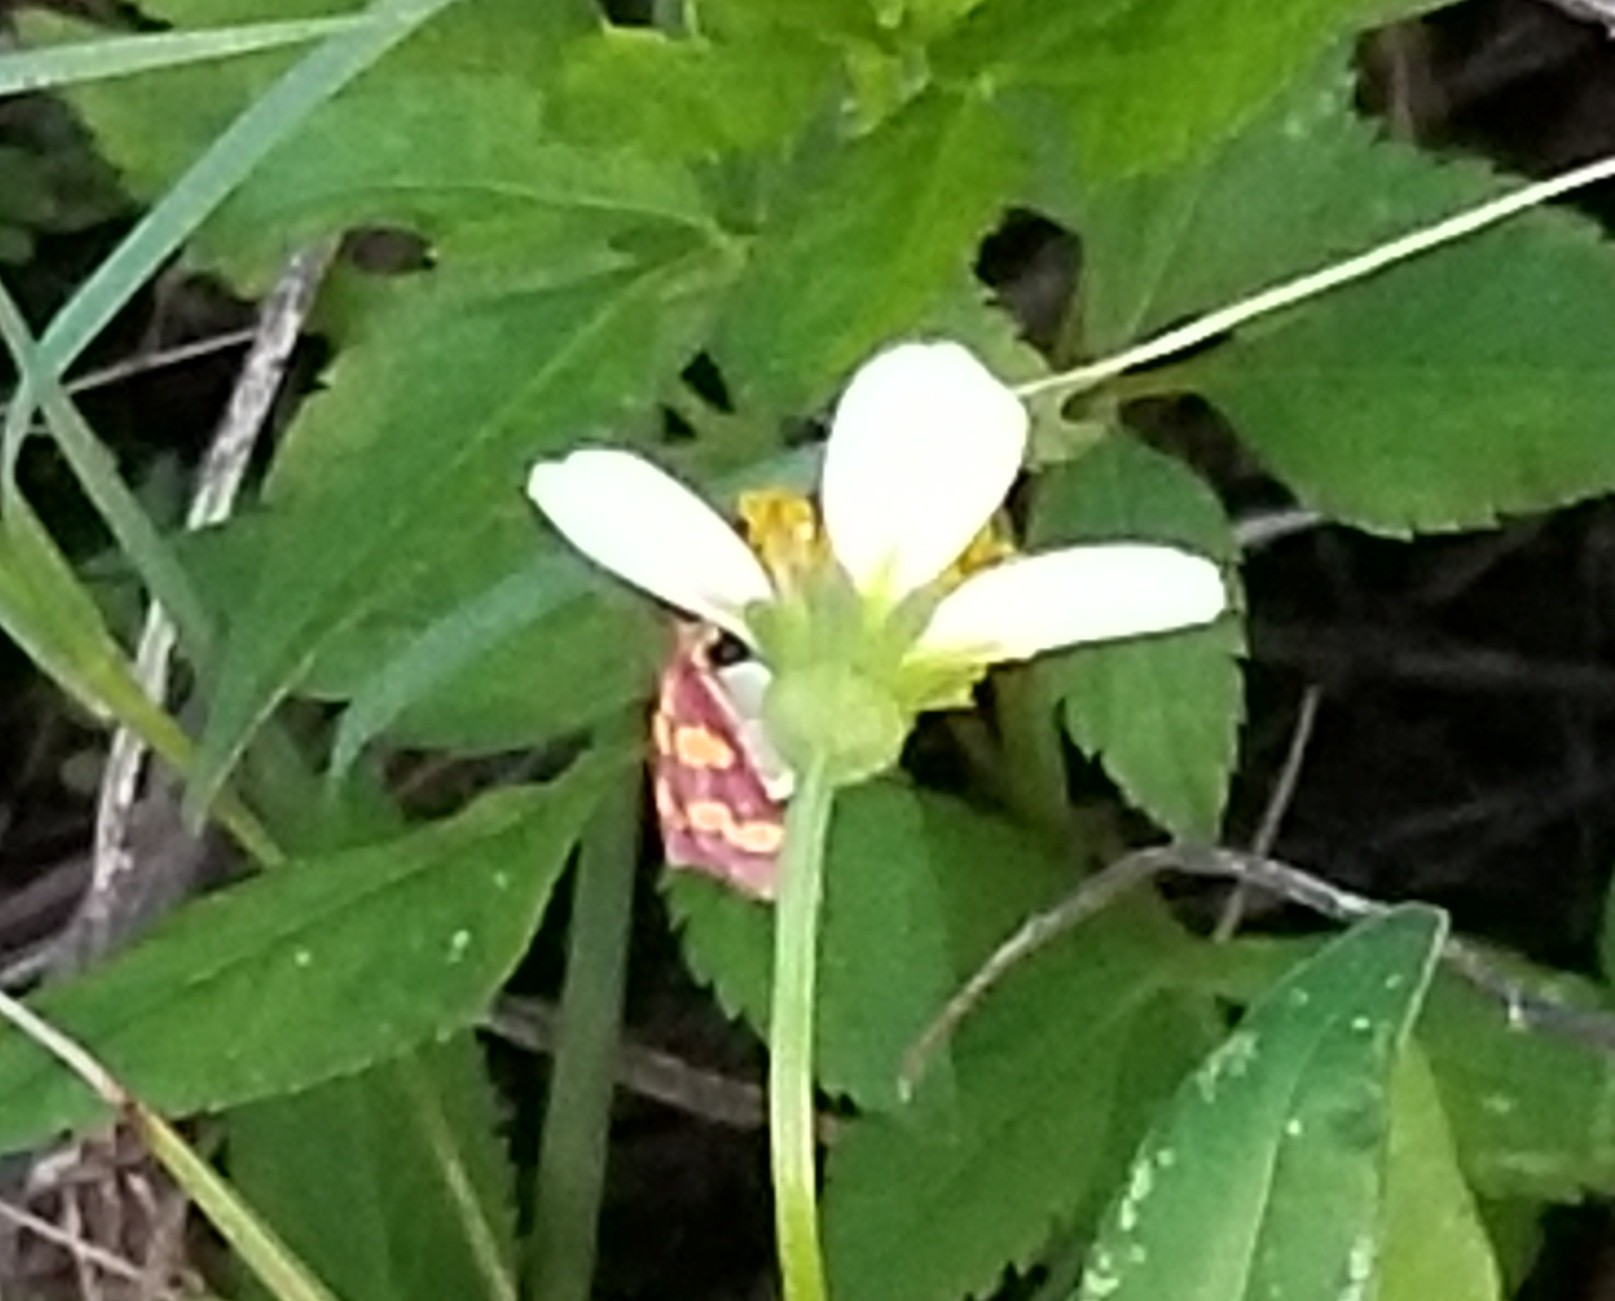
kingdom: Animalia
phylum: Arthropoda
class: Insecta
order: Lepidoptera
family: Crambidae
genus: Pyrausta
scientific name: Pyrausta tyralis
